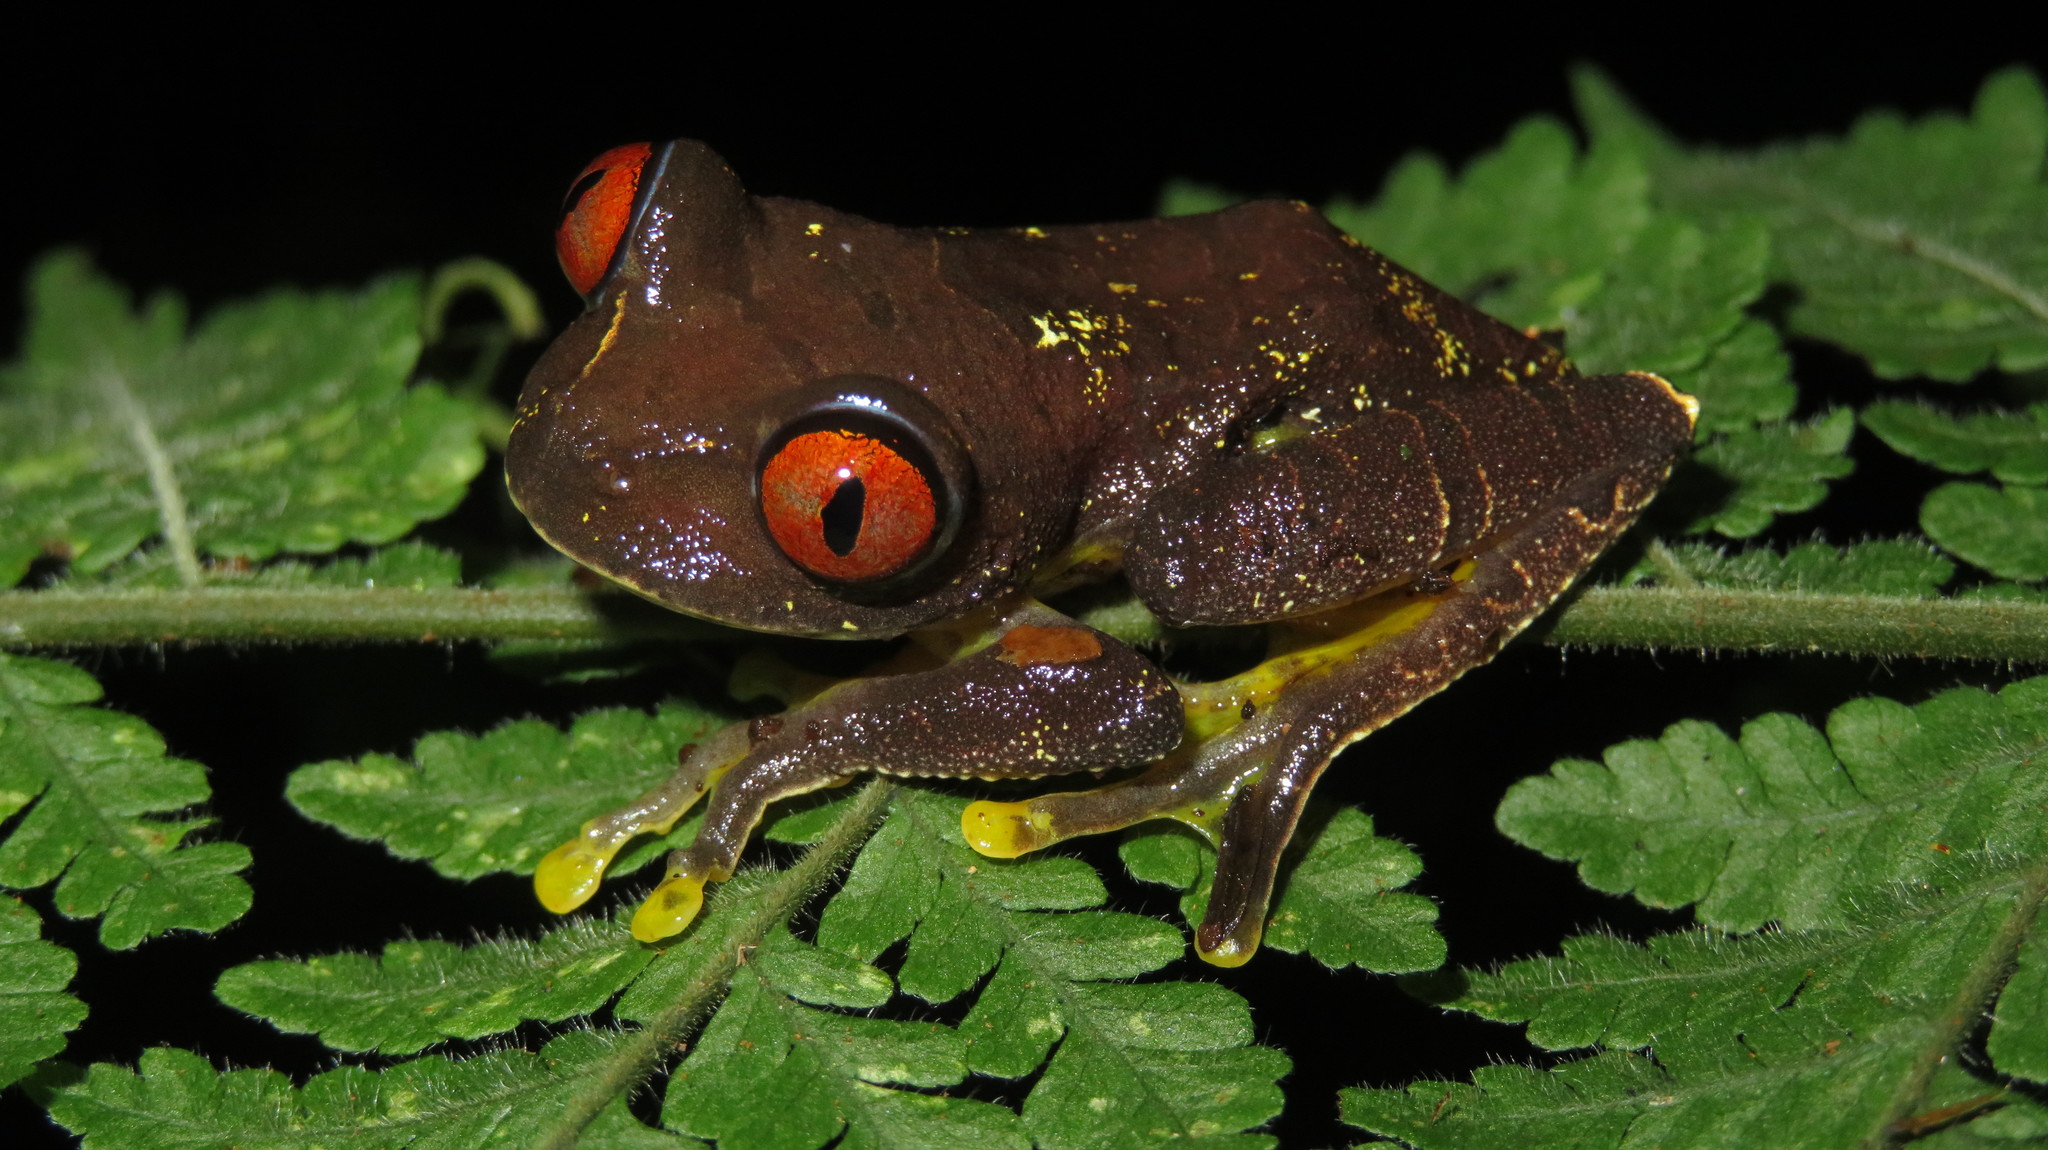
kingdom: Animalia
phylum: Chordata
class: Amphibia
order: Anura
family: Arthroleptidae
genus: Leptopelis
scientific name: Leptopelis parkeri
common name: Parker's tree frog
